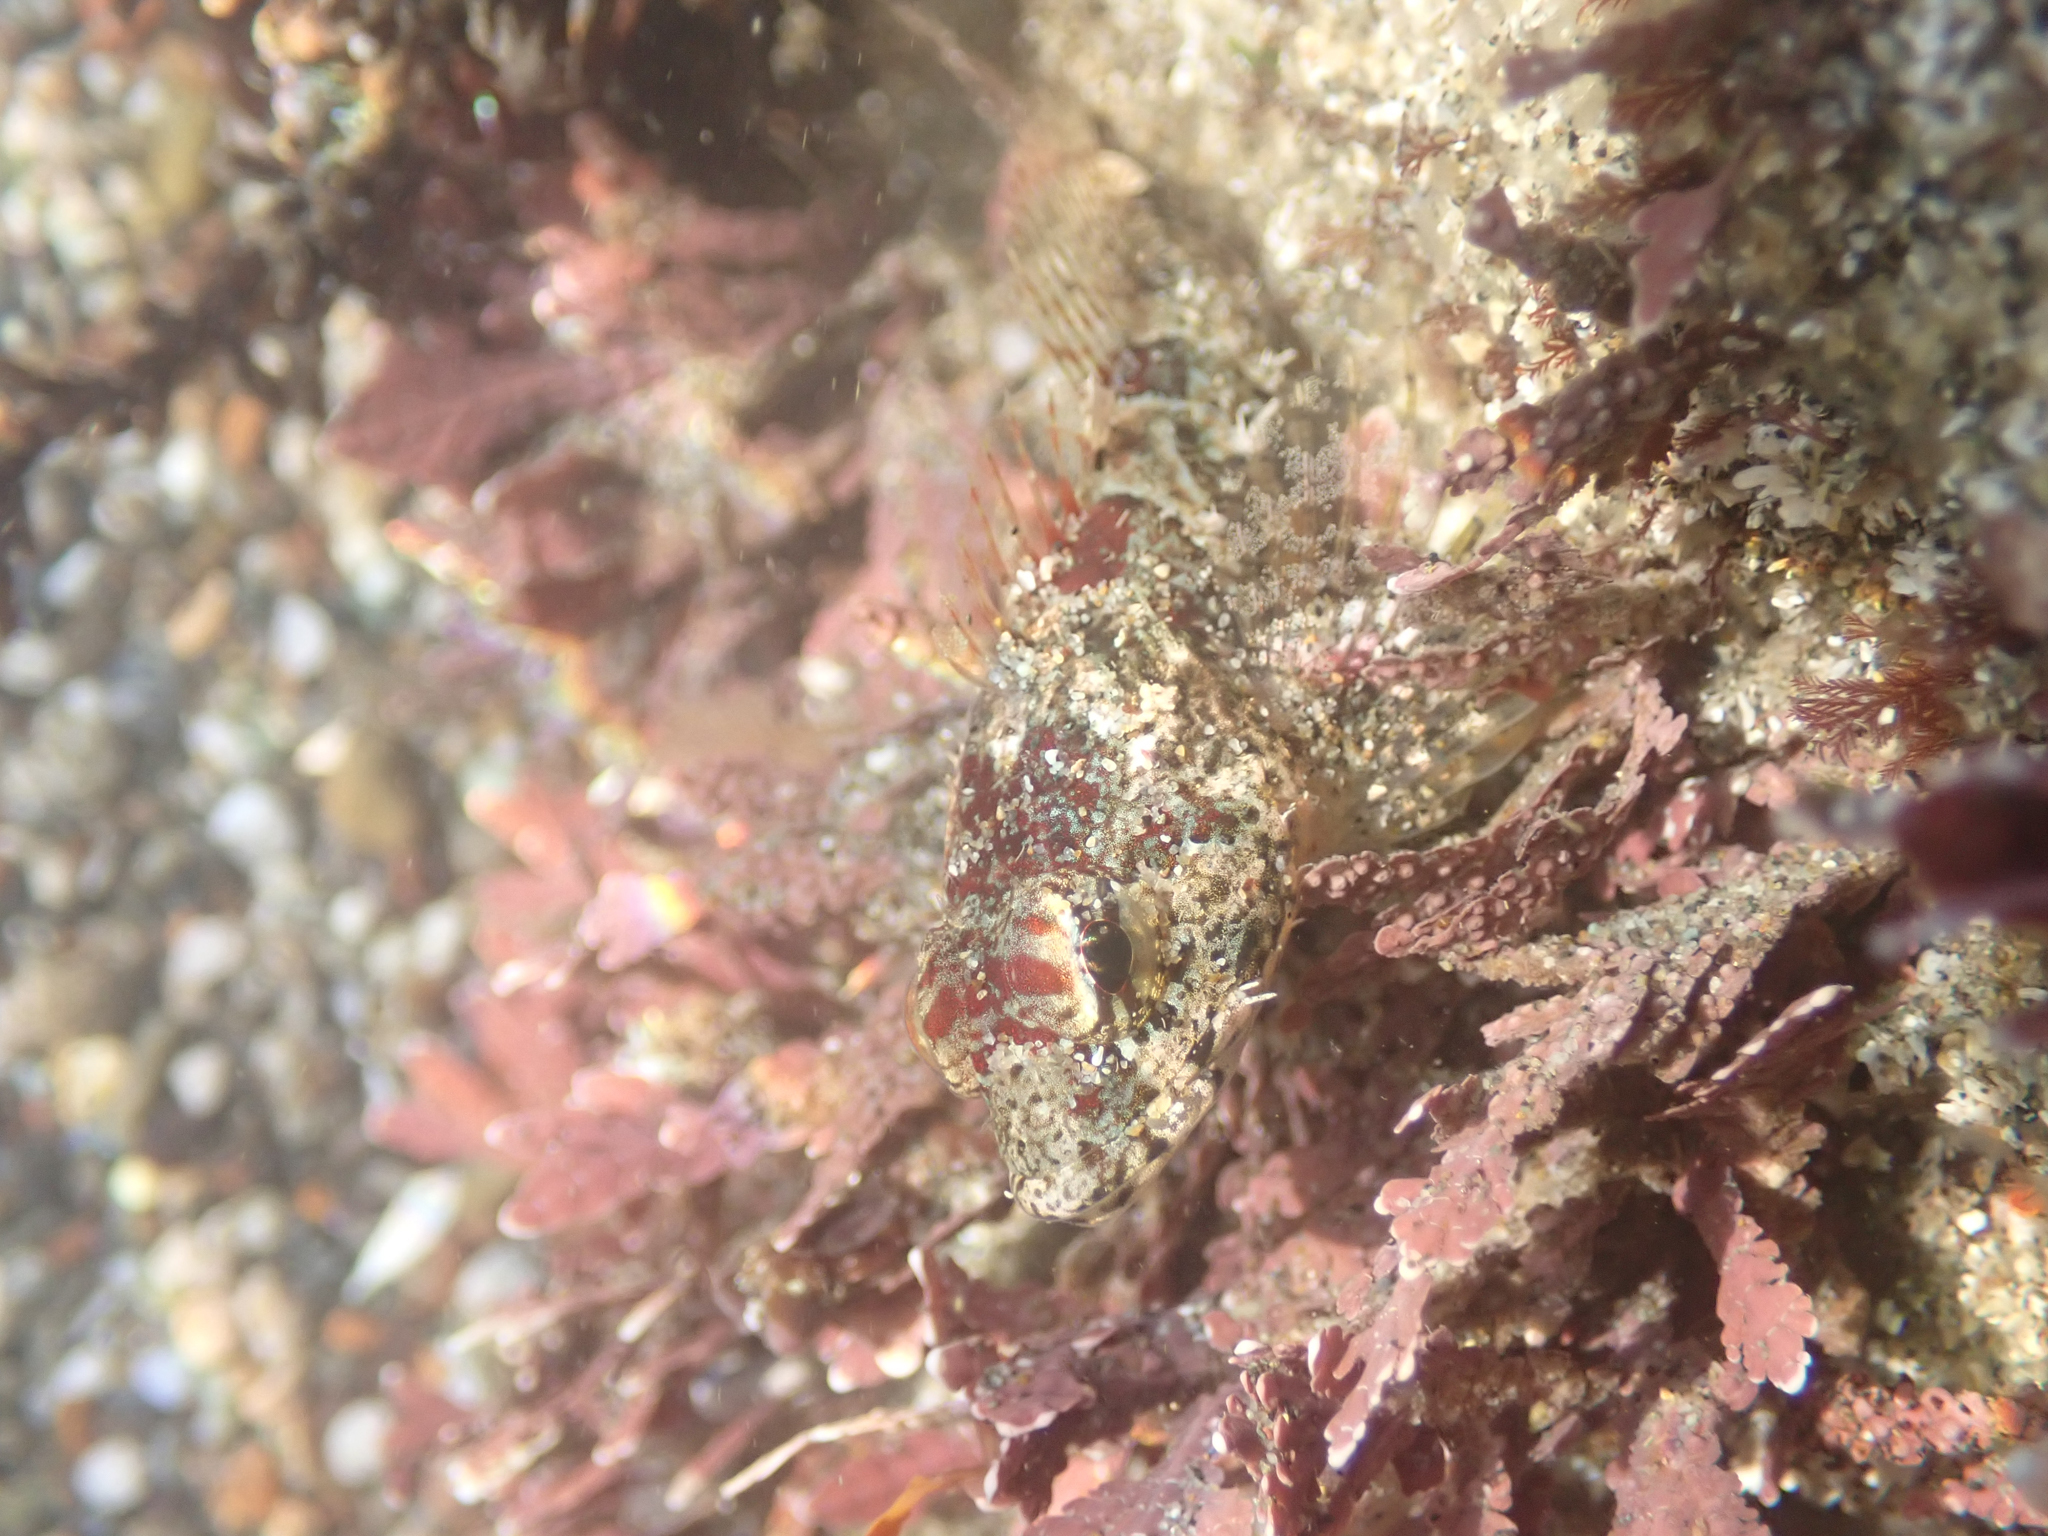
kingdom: Animalia
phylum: Chordata
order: Scorpaeniformes
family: Cottidae
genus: Artedius
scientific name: Artedius lateralis
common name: Smooth-head sculpin
